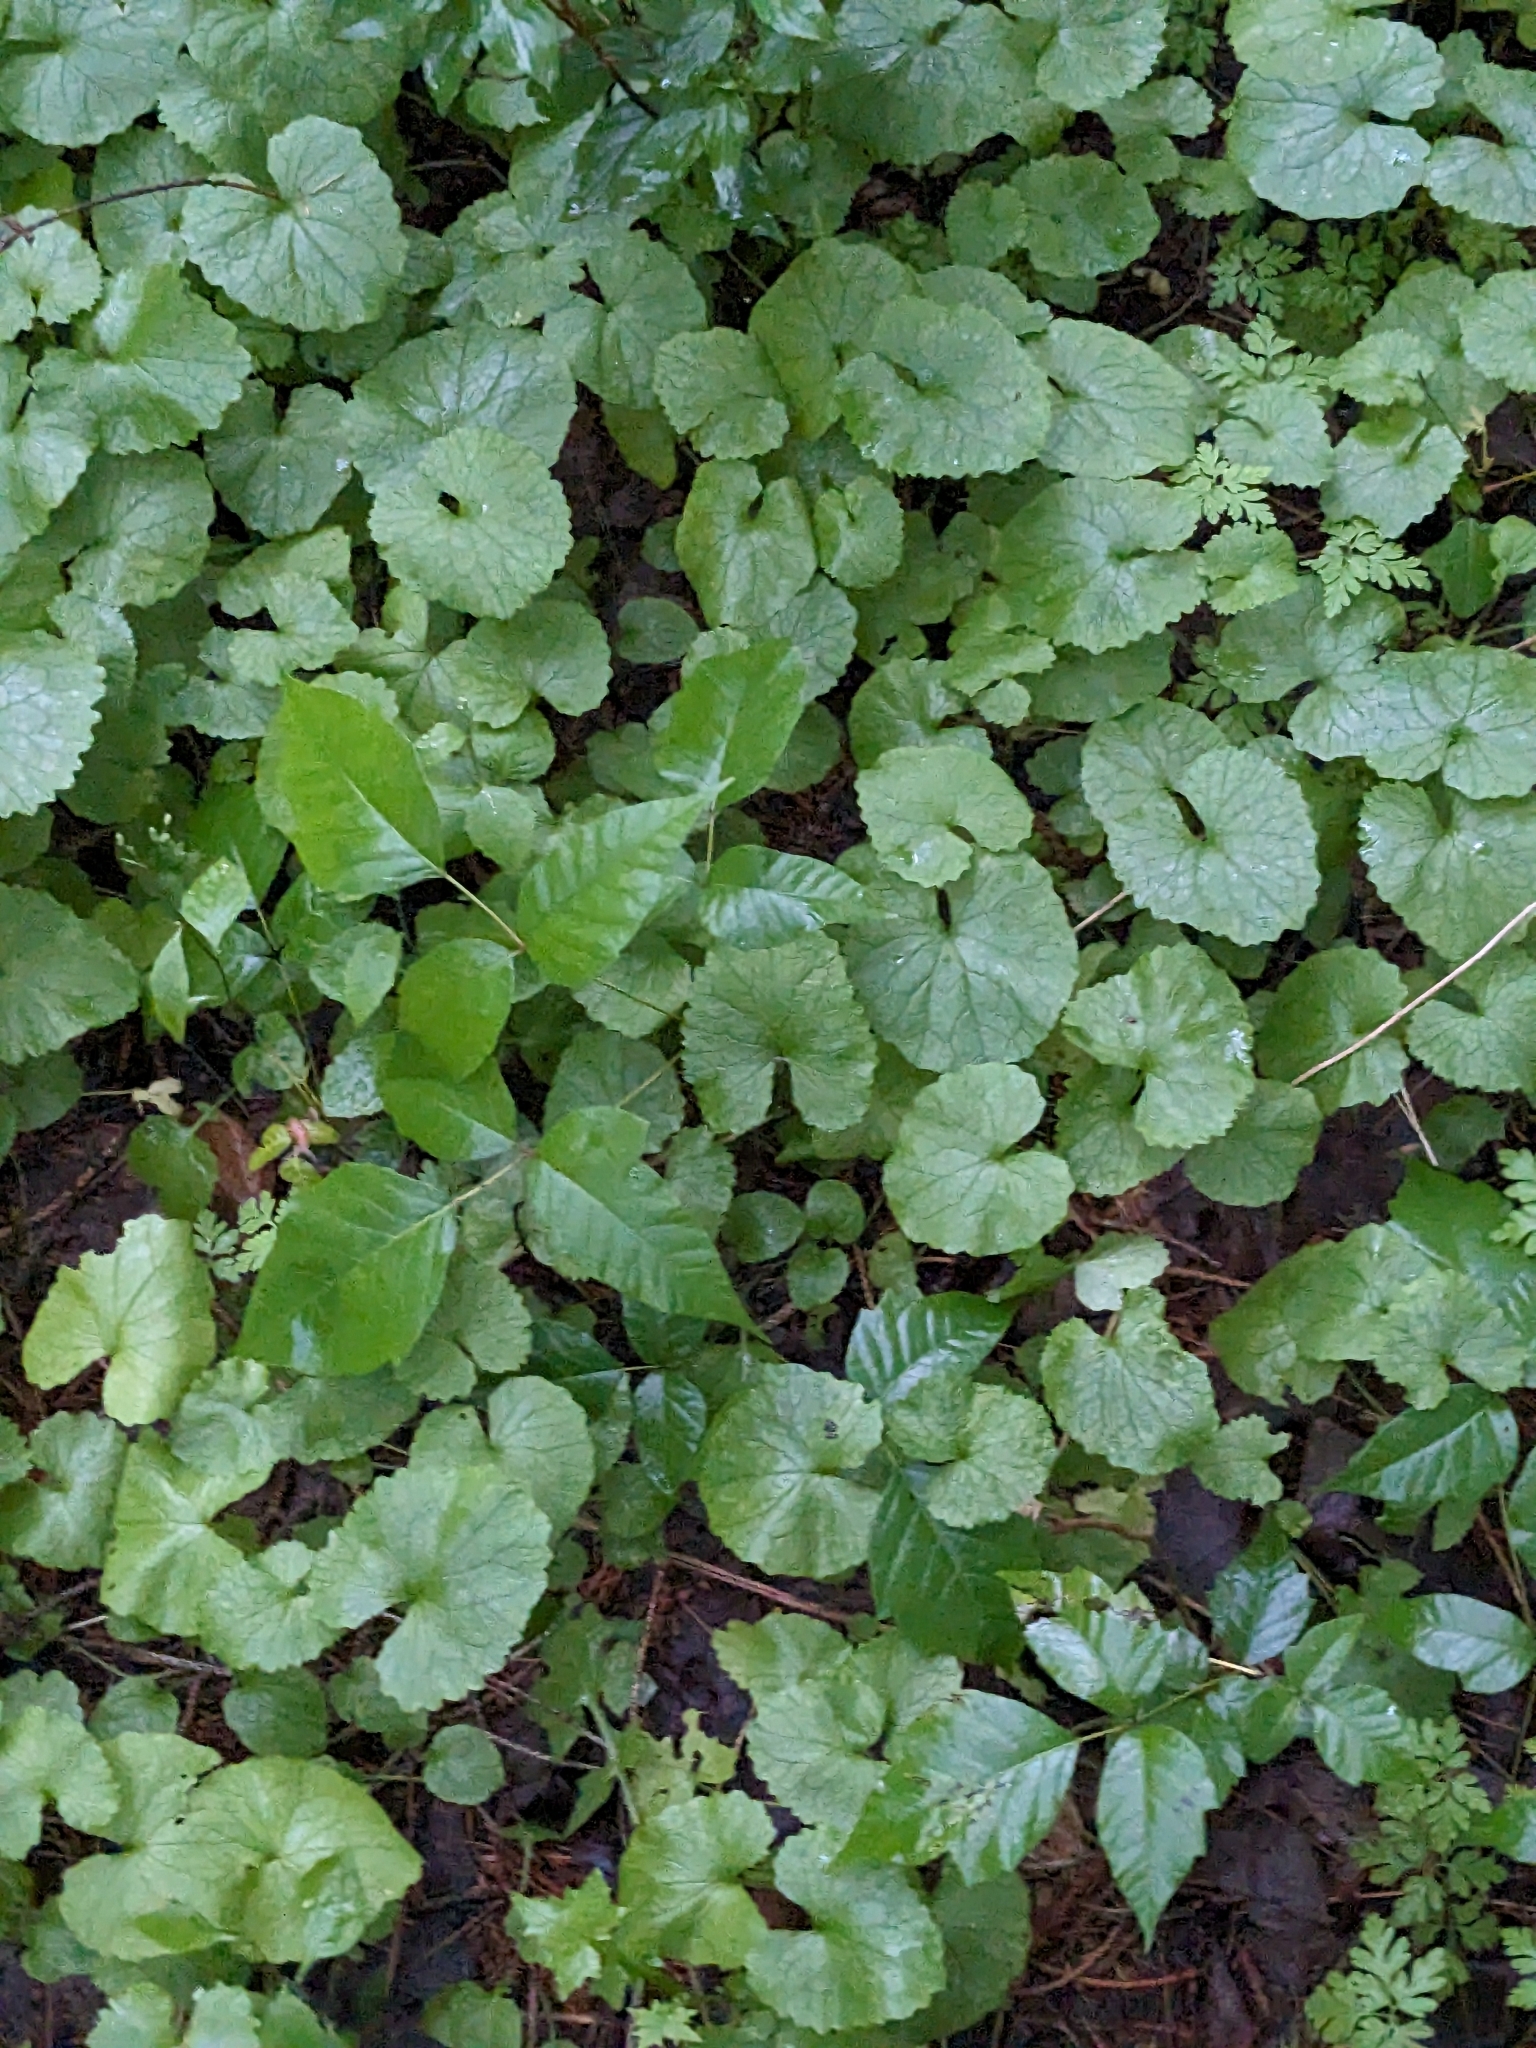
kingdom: Plantae
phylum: Tracheophyta
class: Magnoliopsida
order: Brassicales
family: Brassicaceae
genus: Alliaria
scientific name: Alliaria petiolata
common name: Garlic mustard
